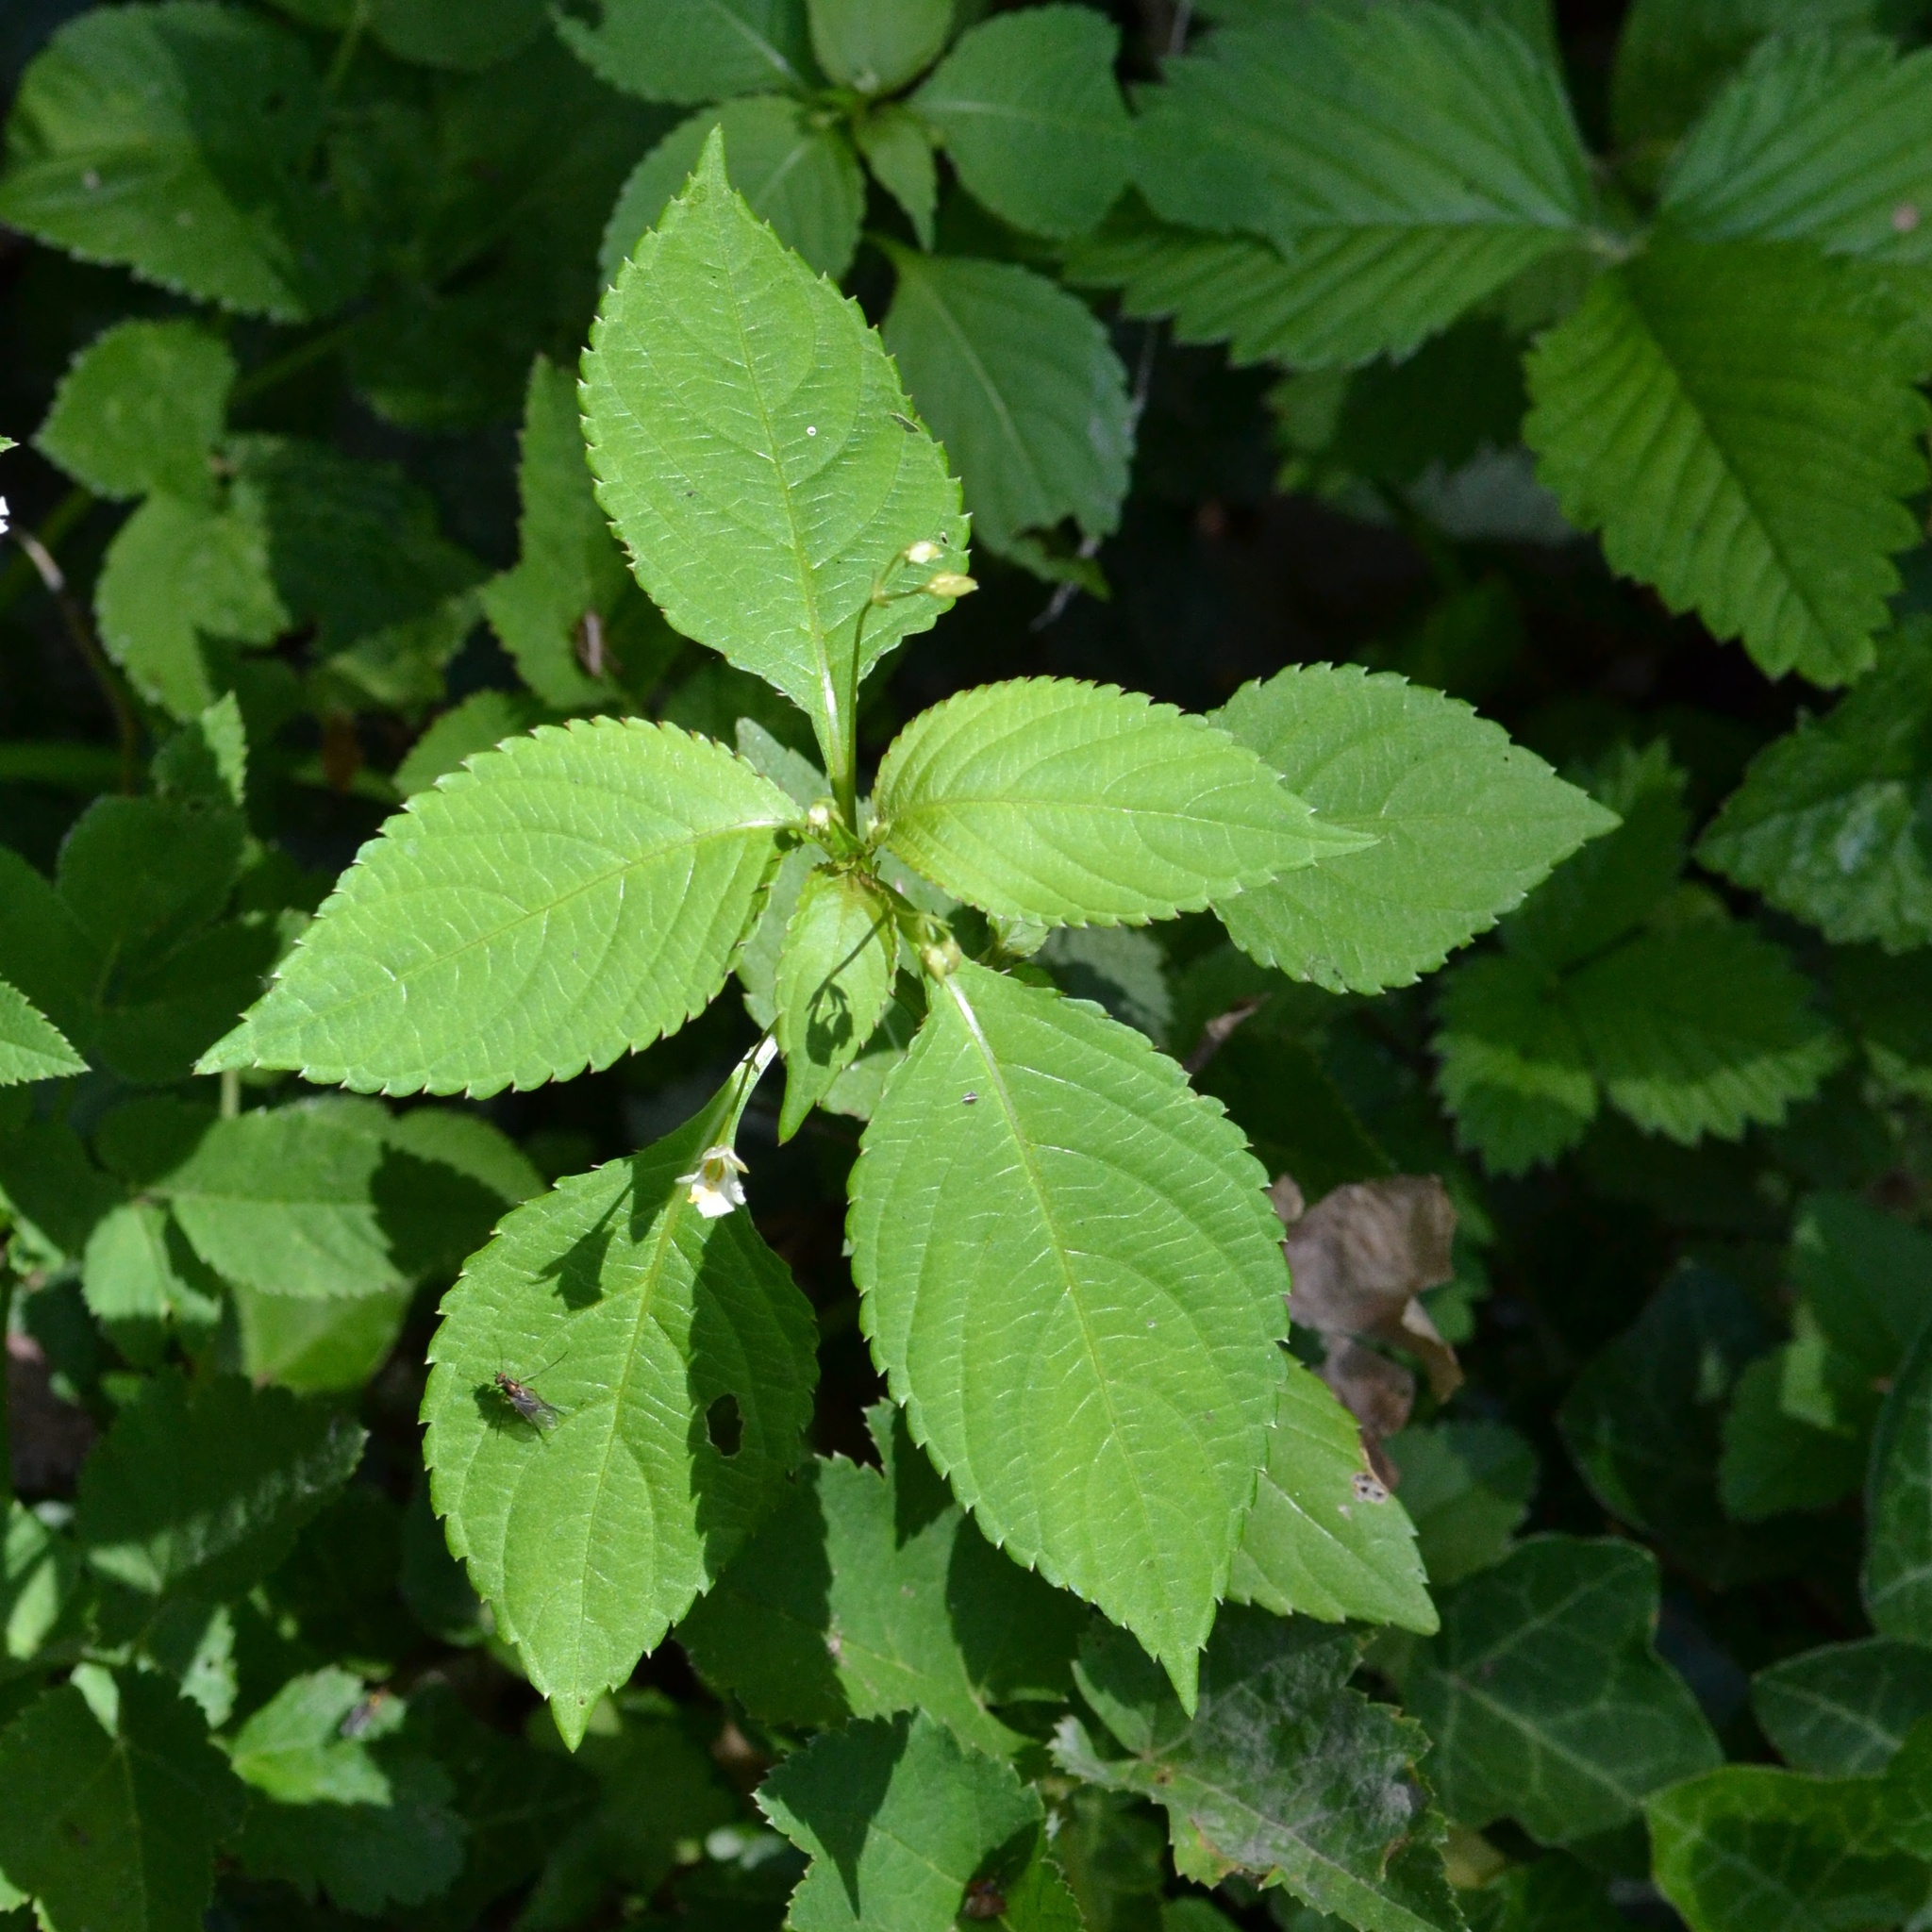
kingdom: Plantae
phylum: Tracheophyta
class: Magnoliopsida
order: Ericales
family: Balsaminaceae
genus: Impatiens
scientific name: Impatiens parviflora
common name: Small balsam
